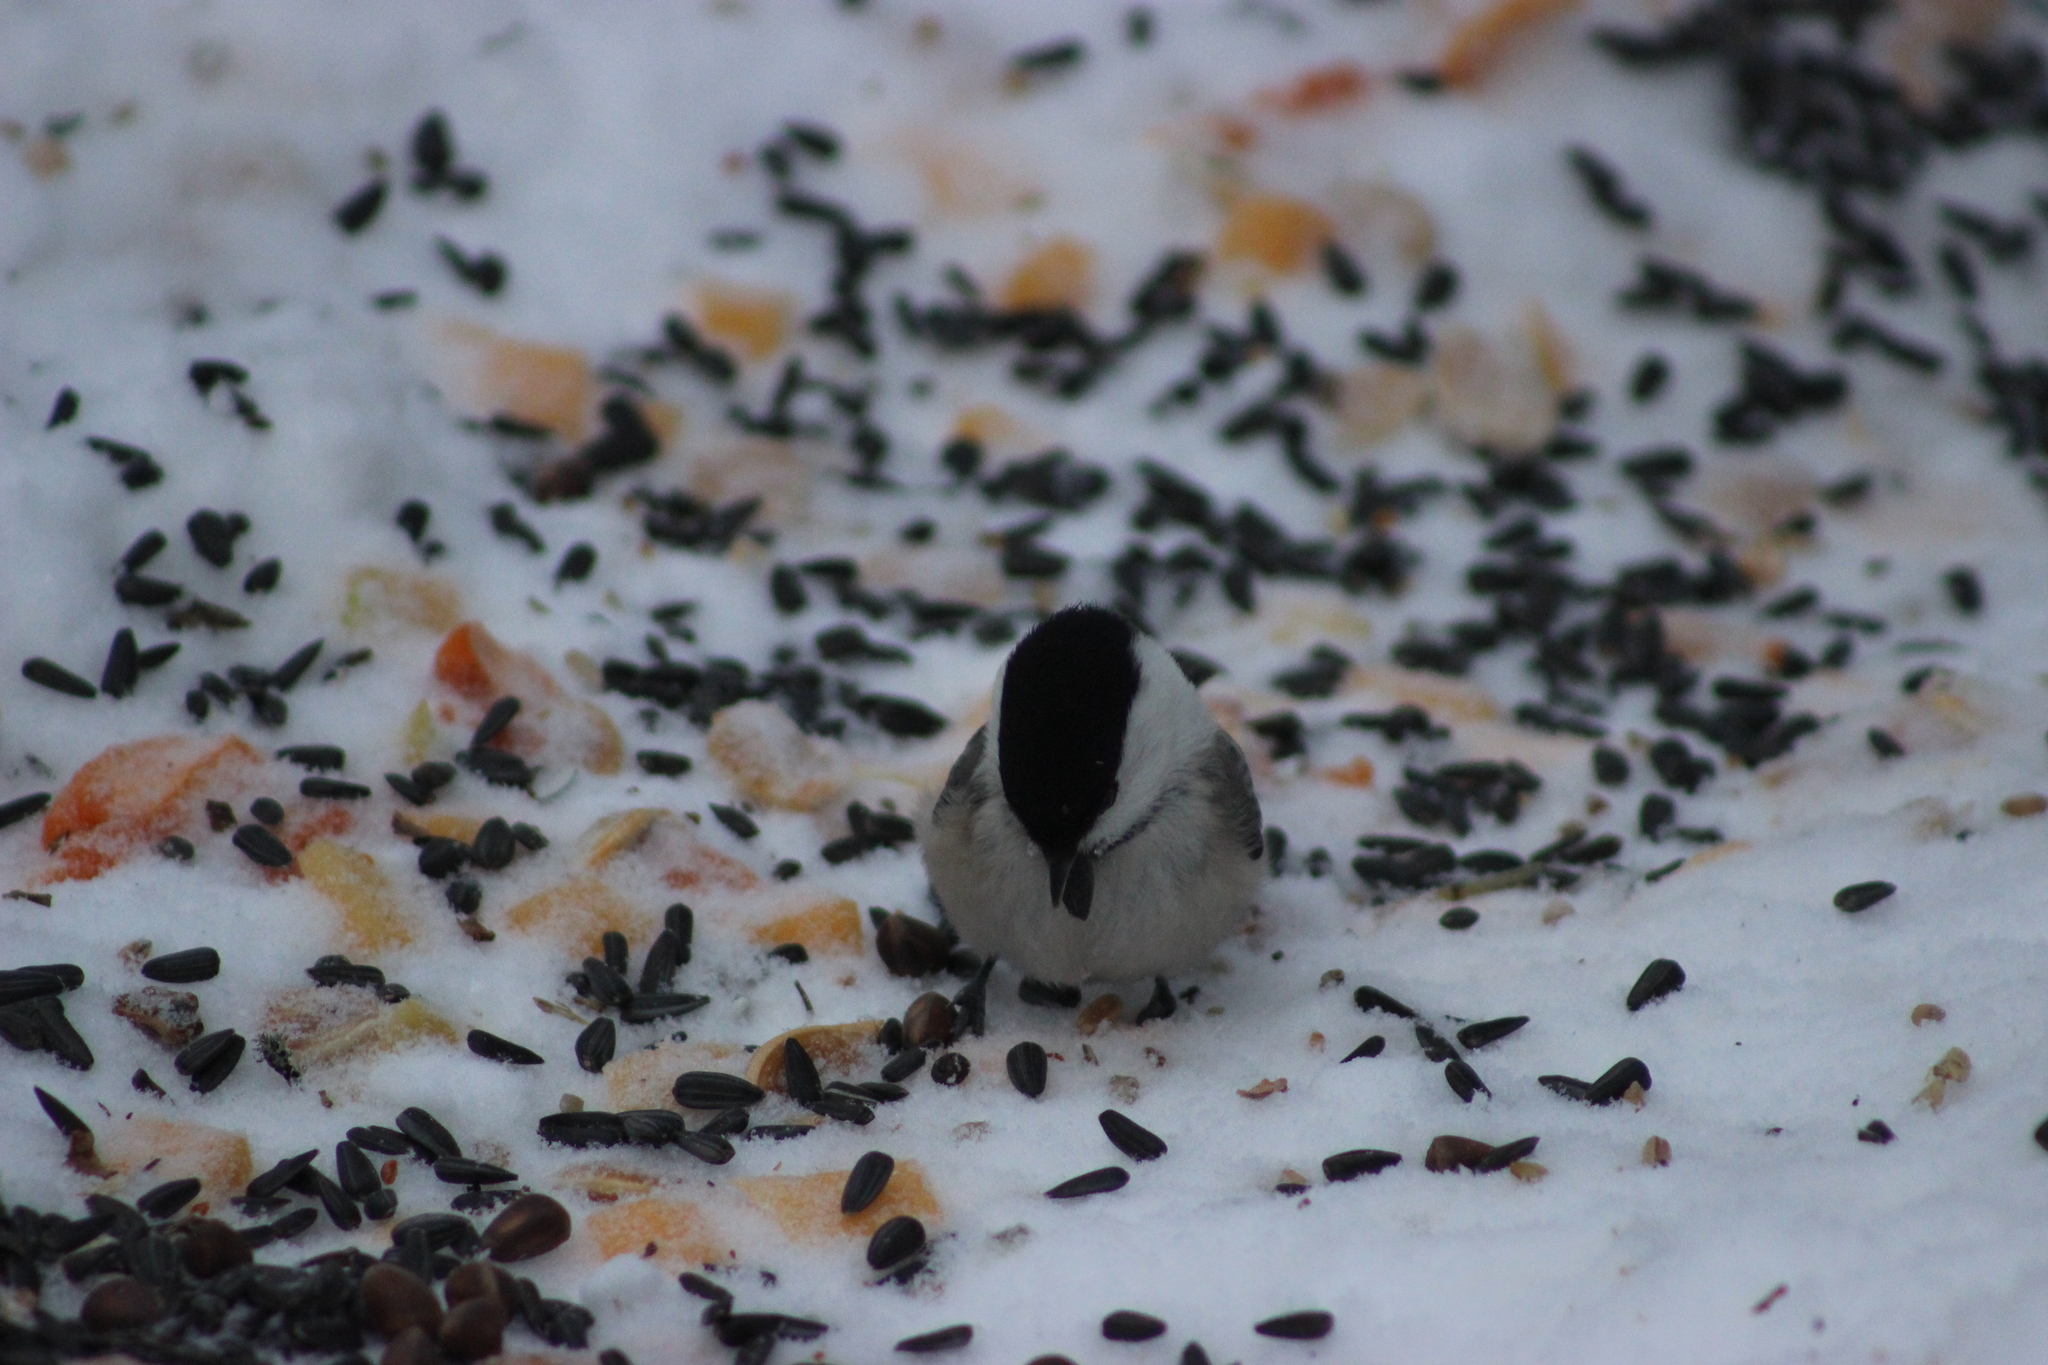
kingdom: Animalia
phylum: Chordata
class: Aves
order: Passeriformes
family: Paridae
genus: Poecile
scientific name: Poecile montanus
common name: Willow tit
